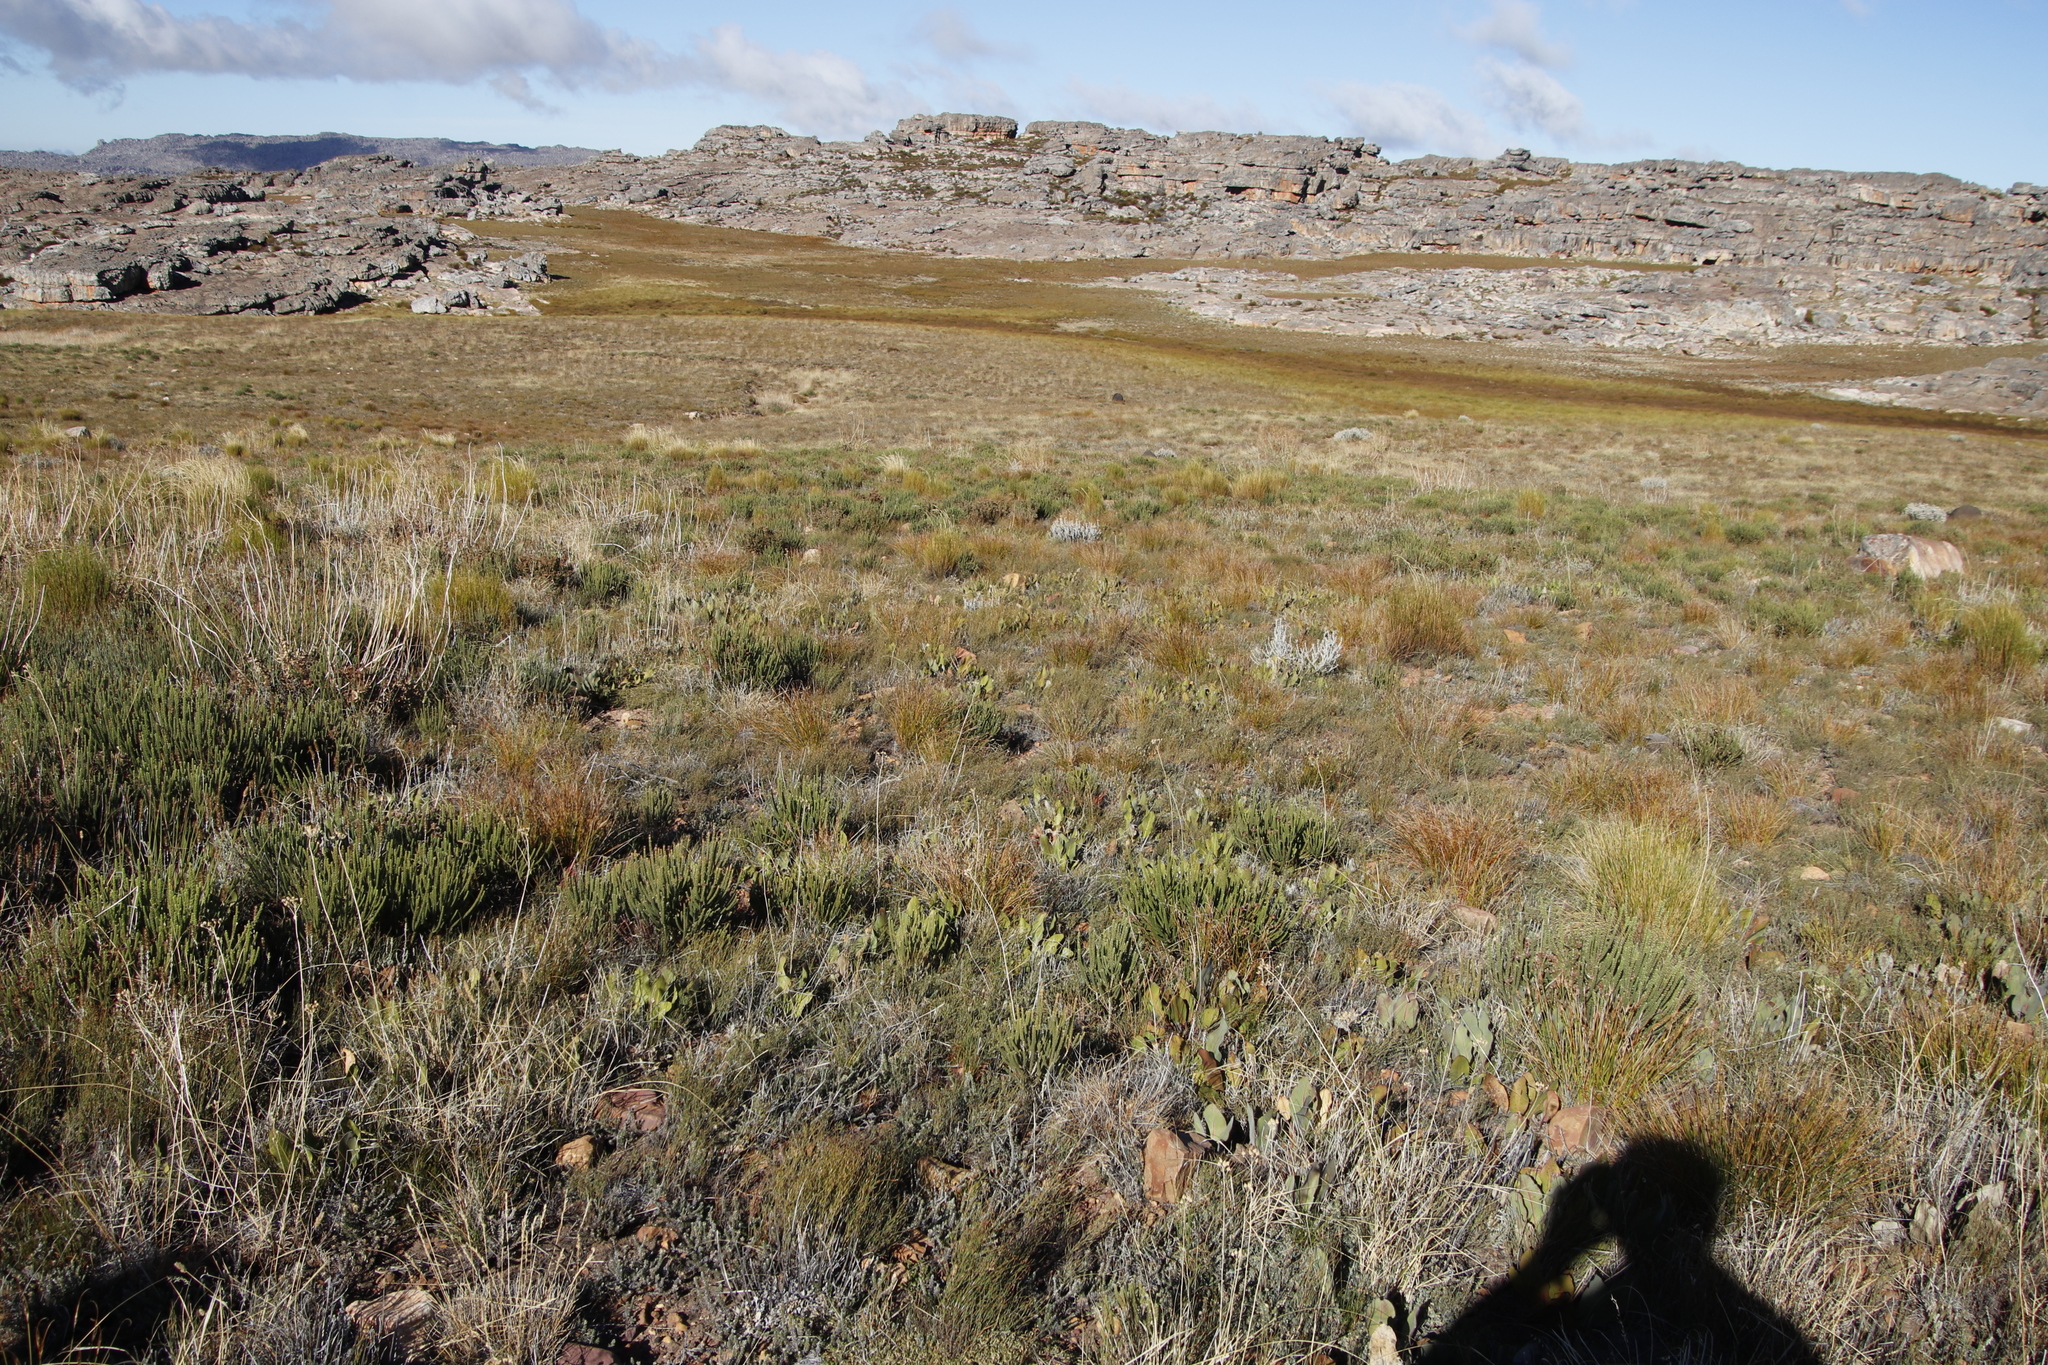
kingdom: Plantae
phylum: Tracheophyta
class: Magnoliopsida
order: Proteales
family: Proteaceae
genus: Protea
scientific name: Protea scolopendriifolia
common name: Harts-tongue-fern sugarbush
